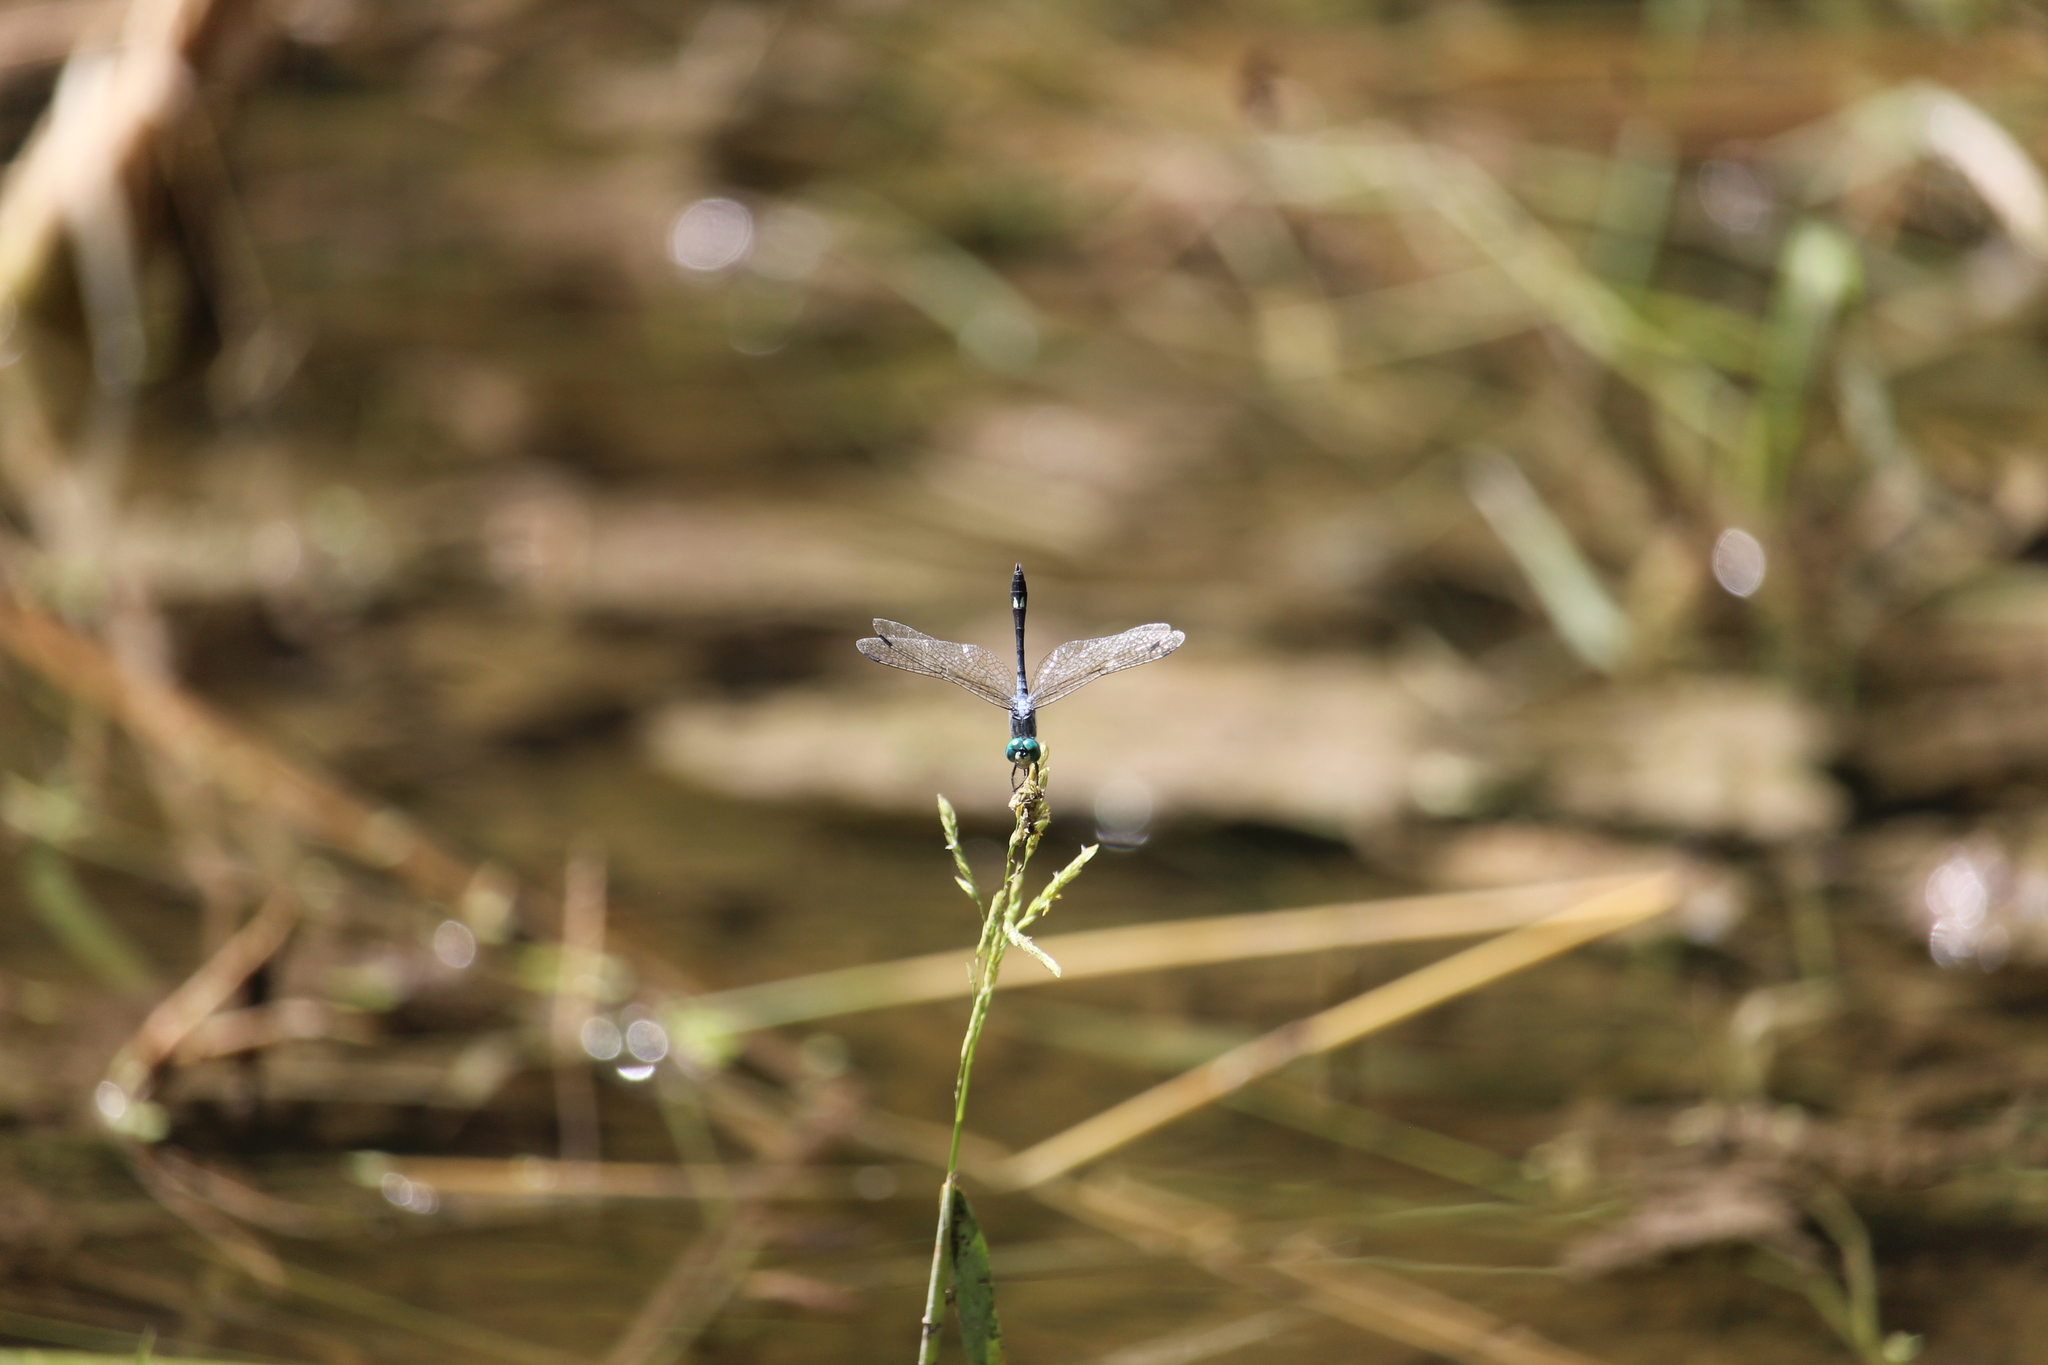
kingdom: Animalia
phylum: Arthropoda
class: Insecta
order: Odonata
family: Libellulidae
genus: Micrathyria
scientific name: Micrathyria aequalis
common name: Spot-tailed dasher
